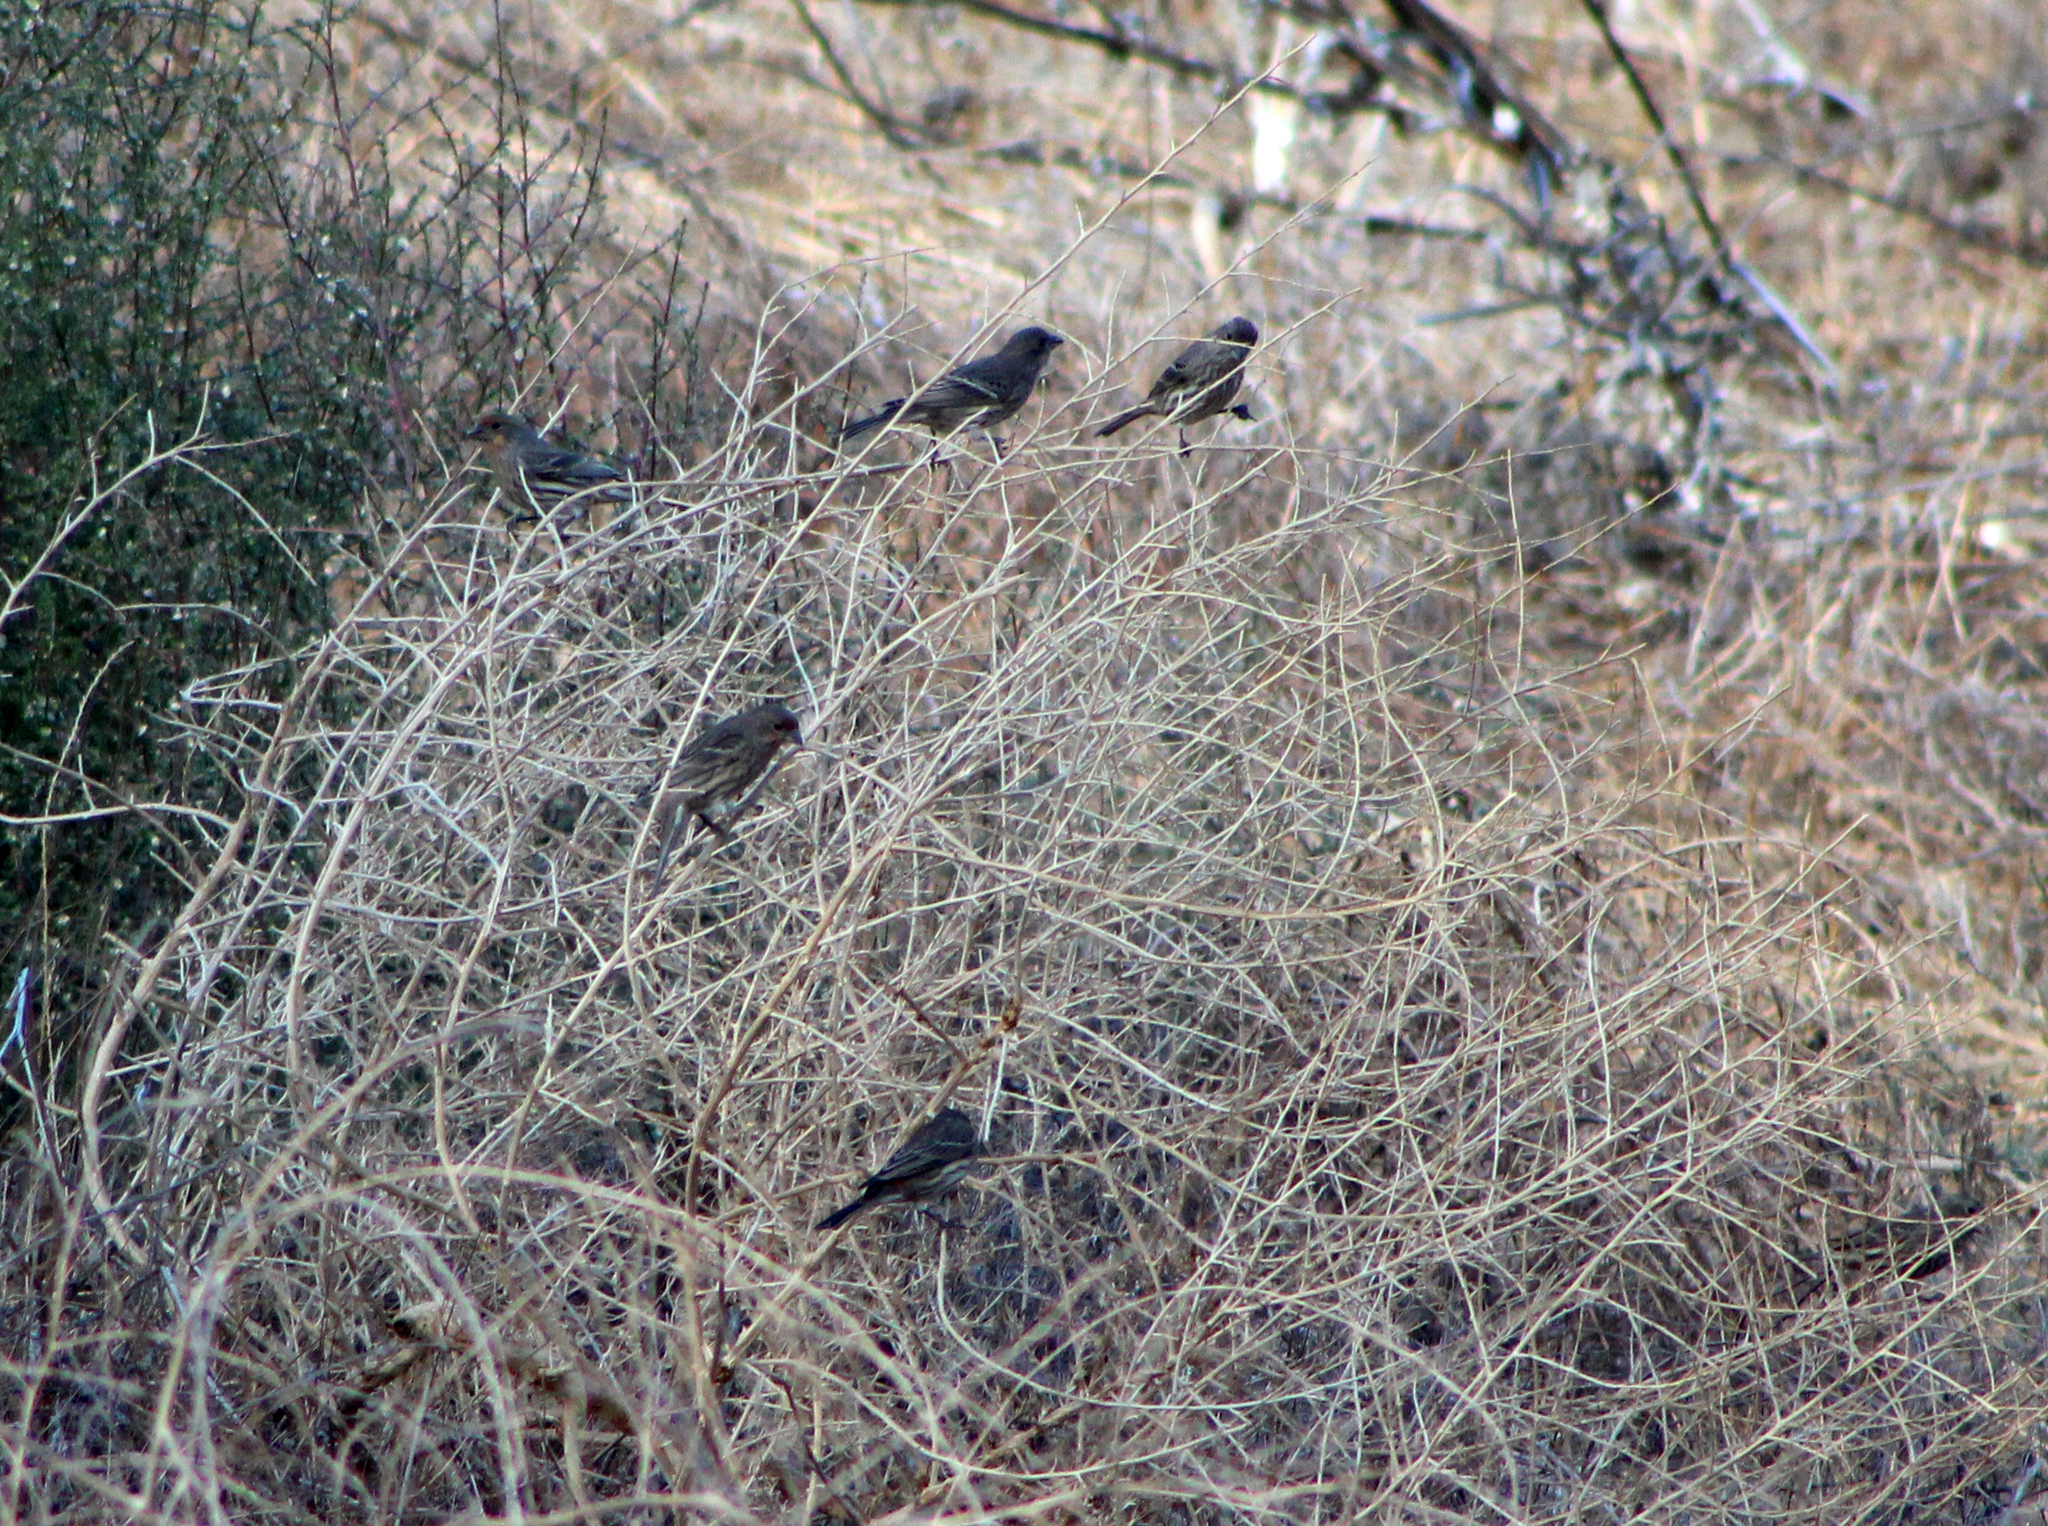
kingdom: Animalia
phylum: Chordata
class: Aves
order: Passeriformes
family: Fringillidae
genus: Haemorhous
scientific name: Haemorhous mexicanus
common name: House finch
